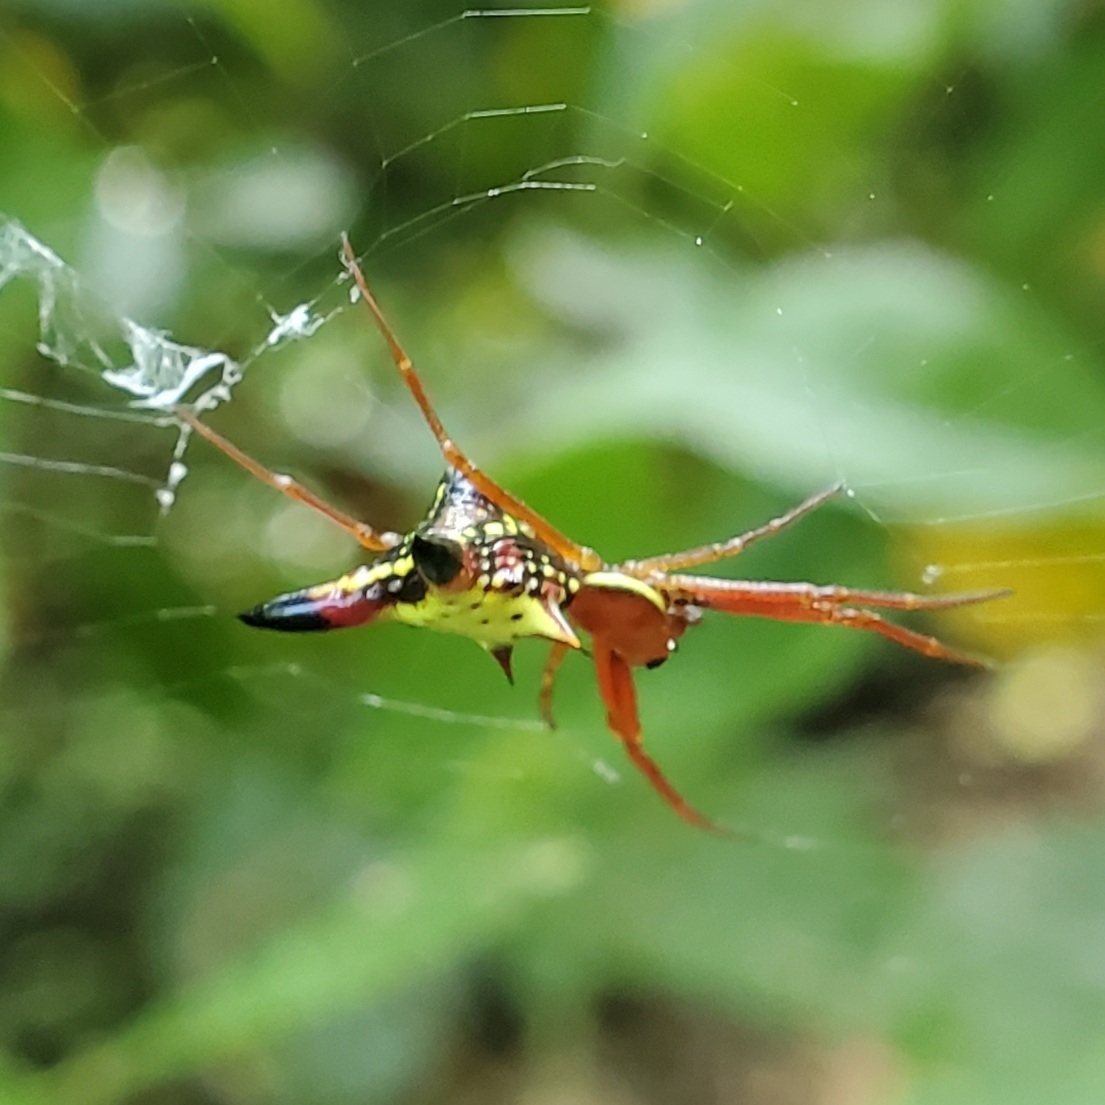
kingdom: Animalia
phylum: Arthropoda
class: Arachnida
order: Araneae
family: Araneidae
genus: Micrathena
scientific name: Micrathena sagittata
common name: Orb weavers
